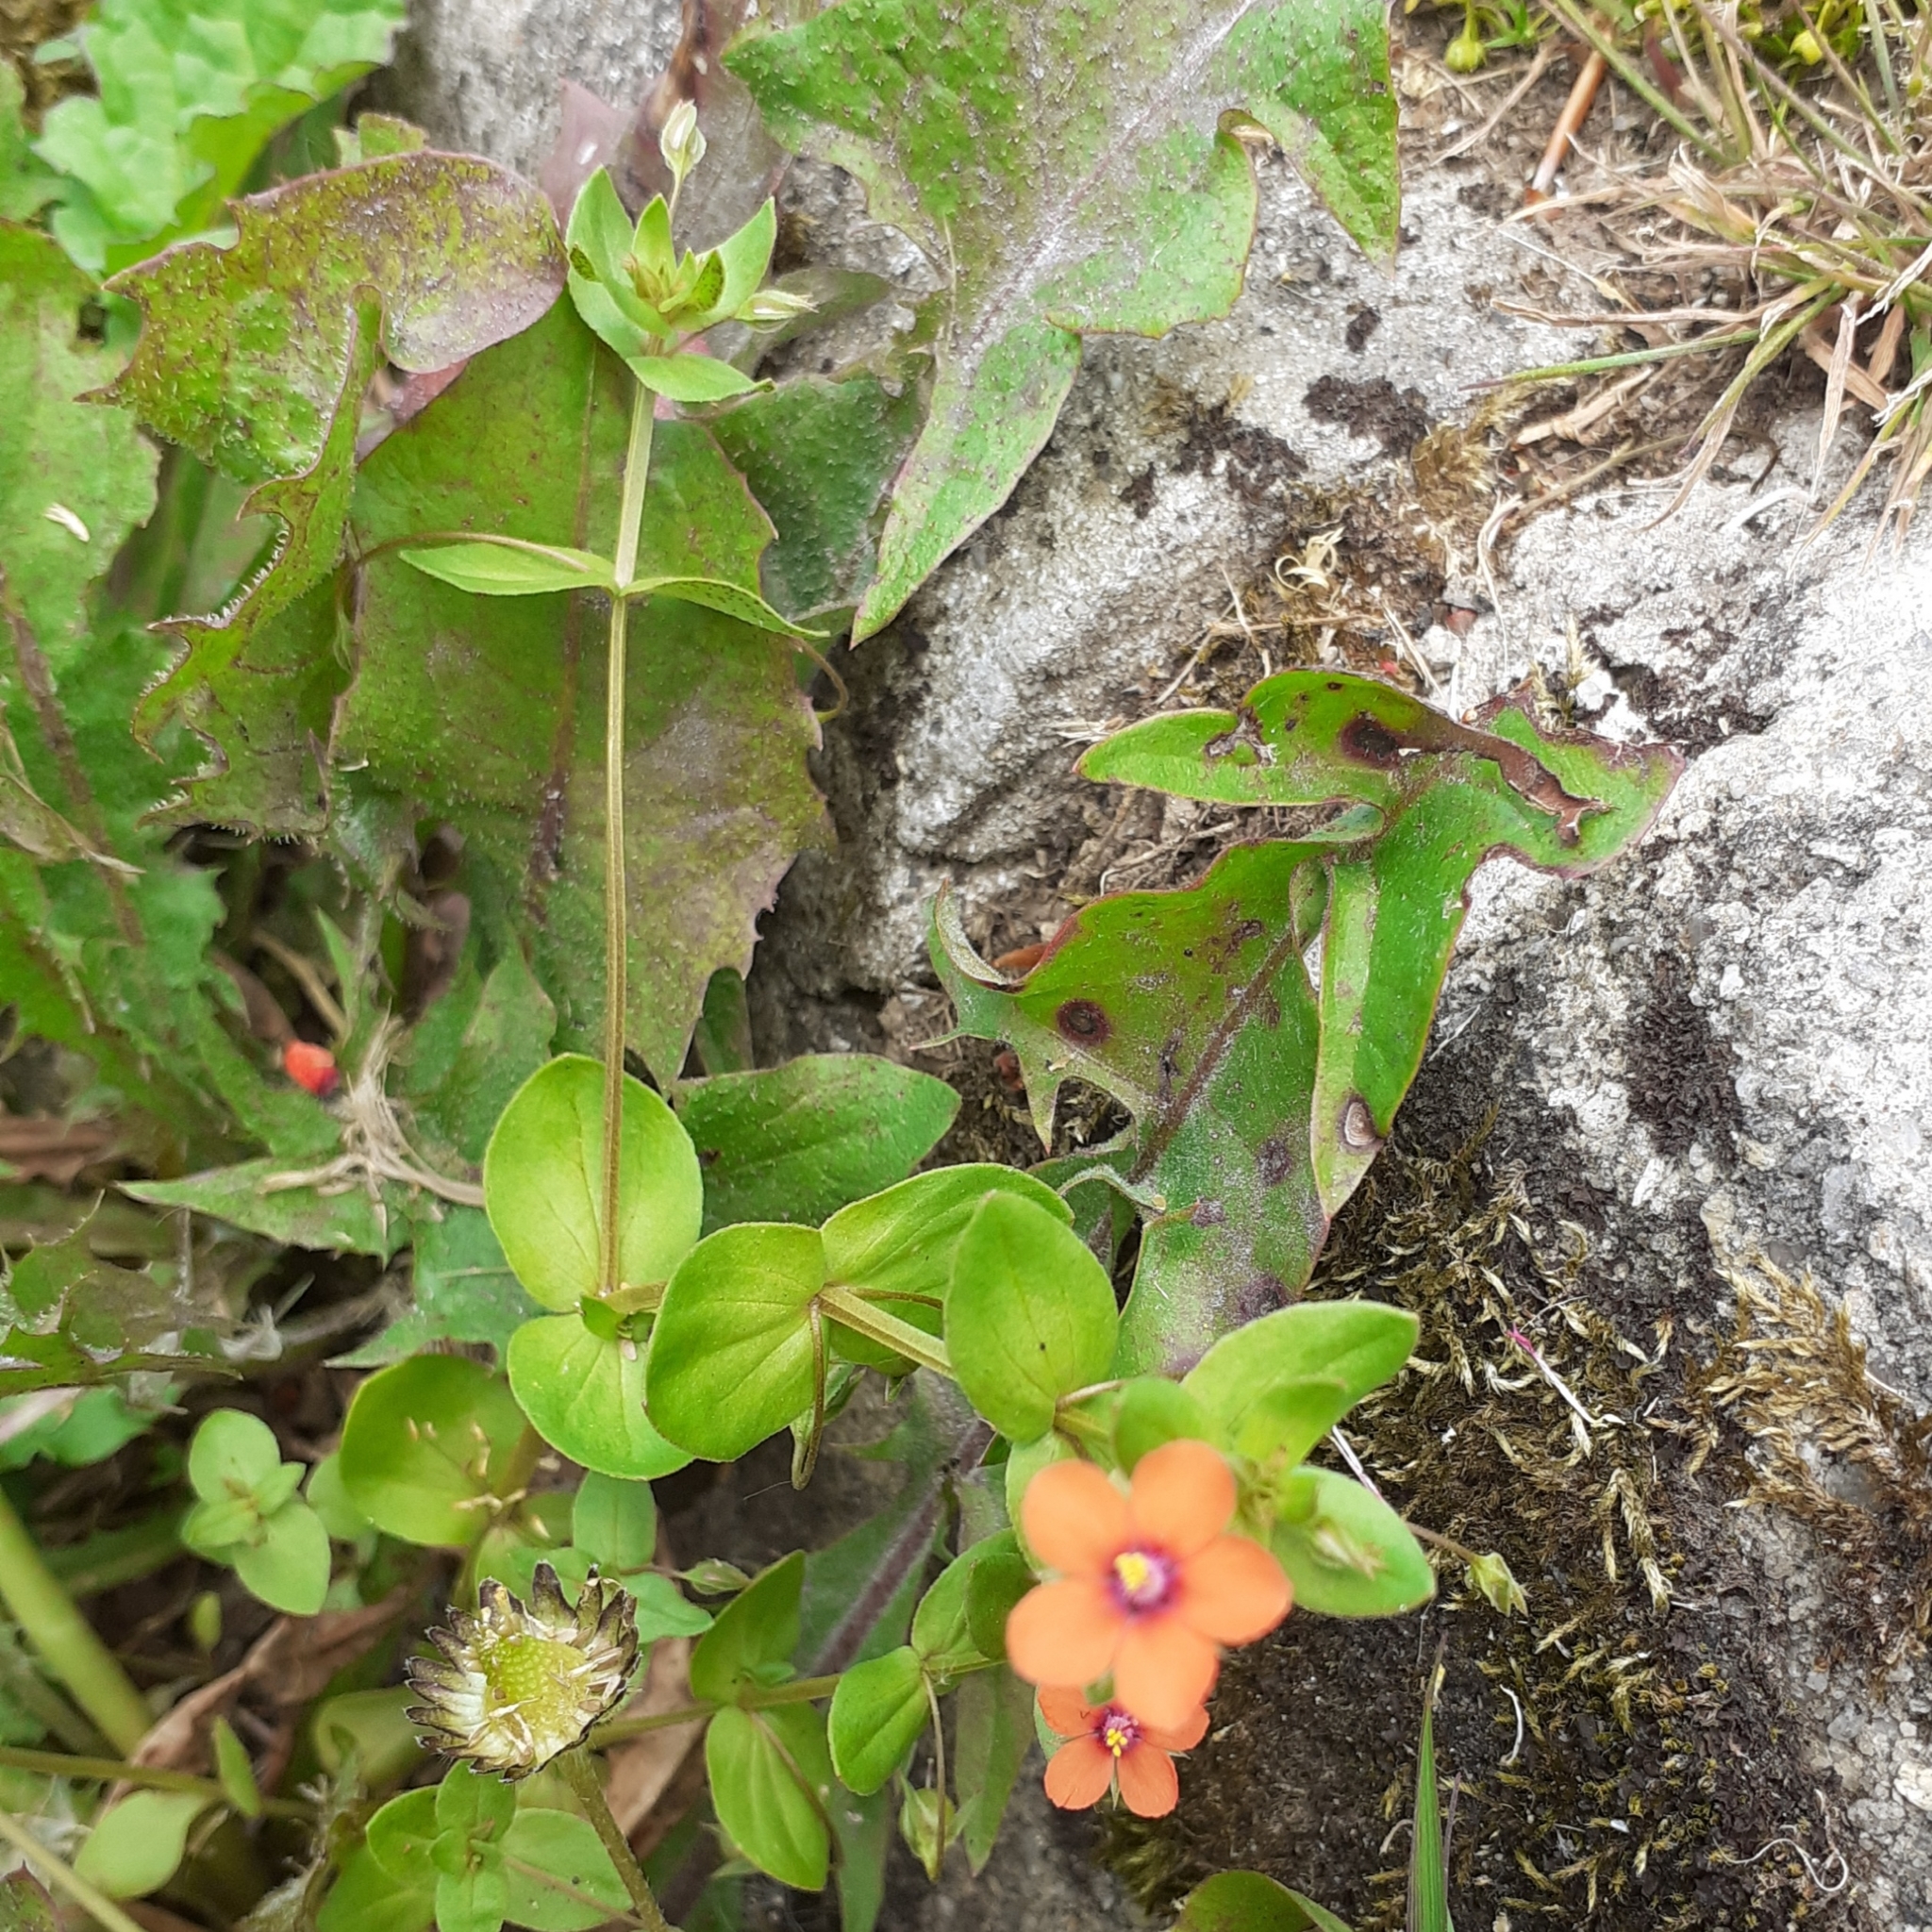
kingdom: Plantae
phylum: Tracheophyta
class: Magnoliopsida
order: Ericales
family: Primulaceae
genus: Lysimachia
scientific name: Lysimachia arvensis
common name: Scarlet pimpernel
